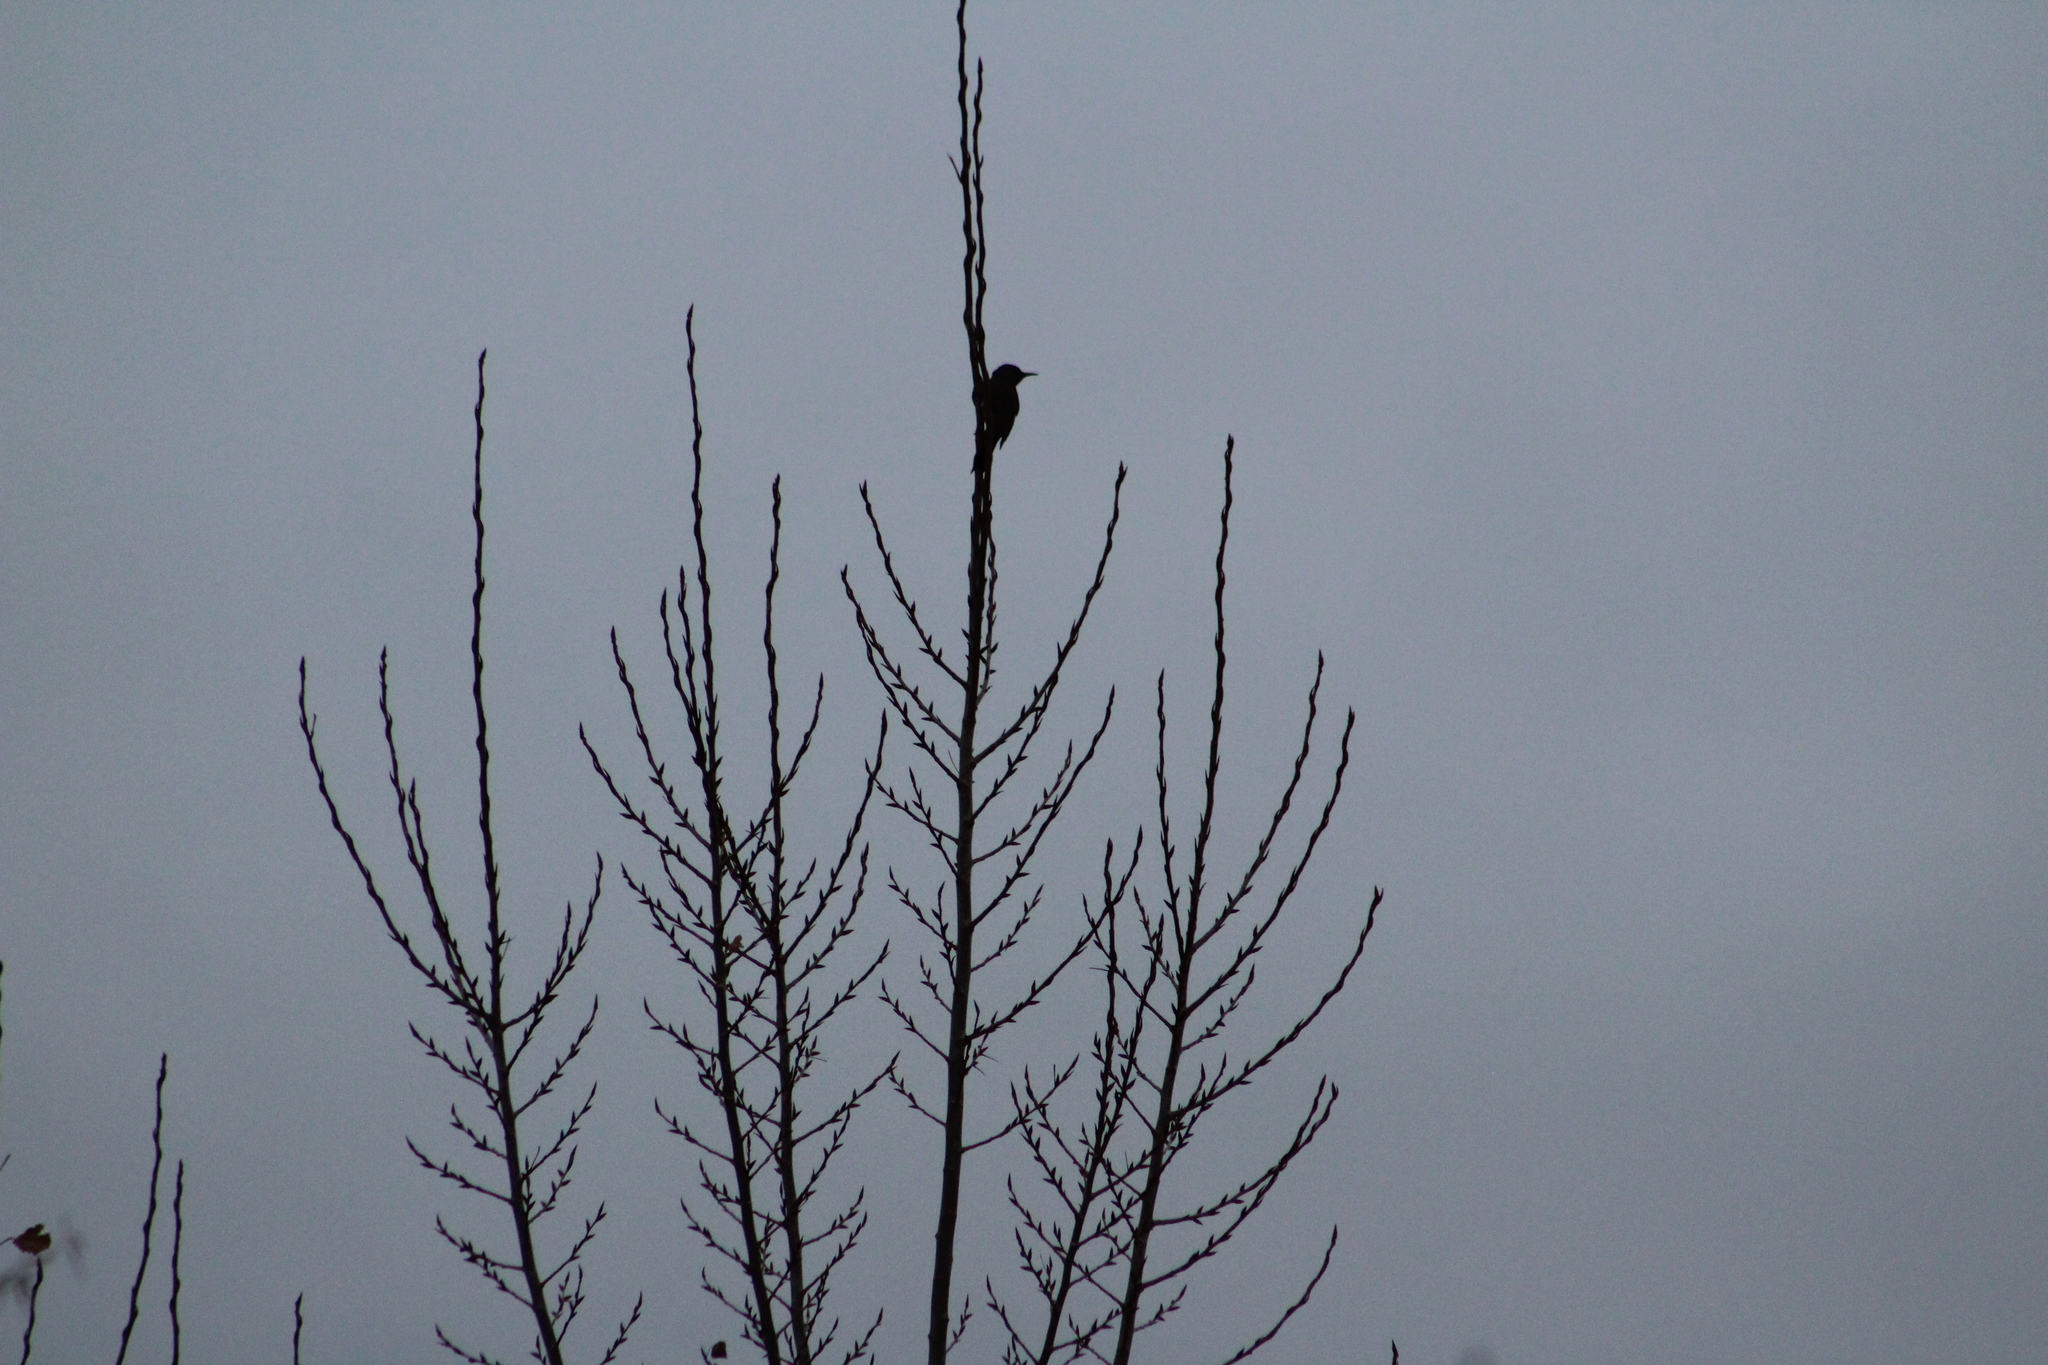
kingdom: Animalia
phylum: Chordata
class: Aves
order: Piciformes
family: Picidae
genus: Colaptes
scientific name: Colaptes auratus
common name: Northern flicker
